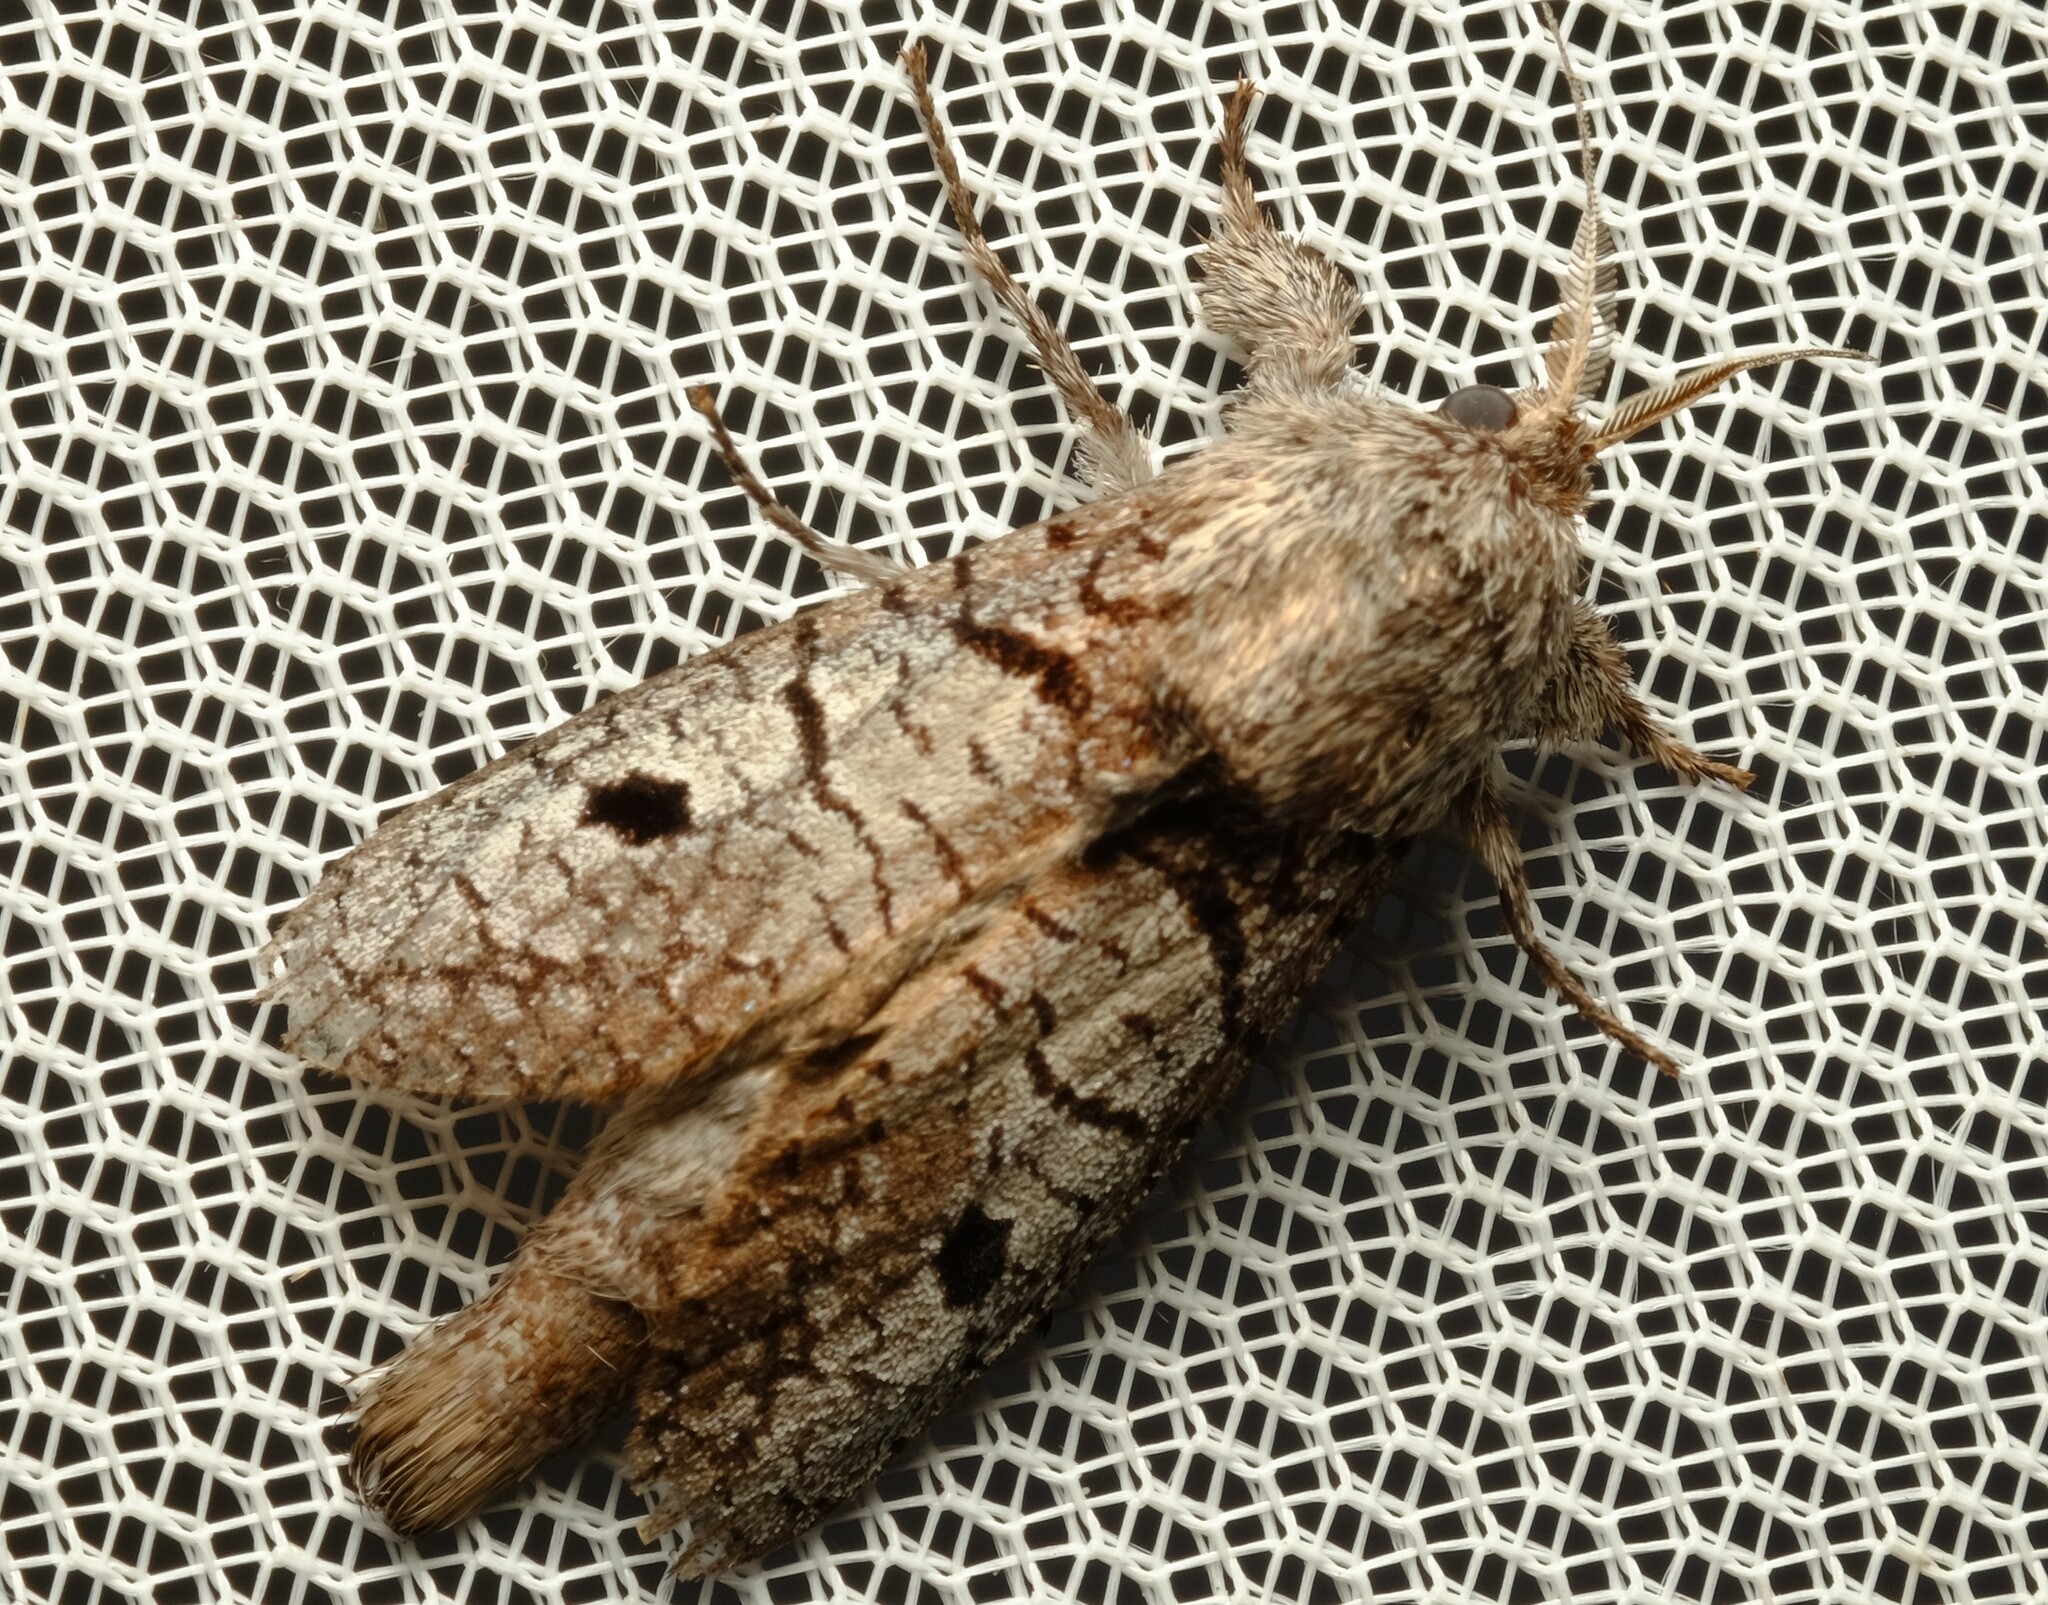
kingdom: Animalia
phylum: Arthropoda
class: Insecta
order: Lepidoptera
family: Cossidae
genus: Sympycnodes
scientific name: Sympycnodes
